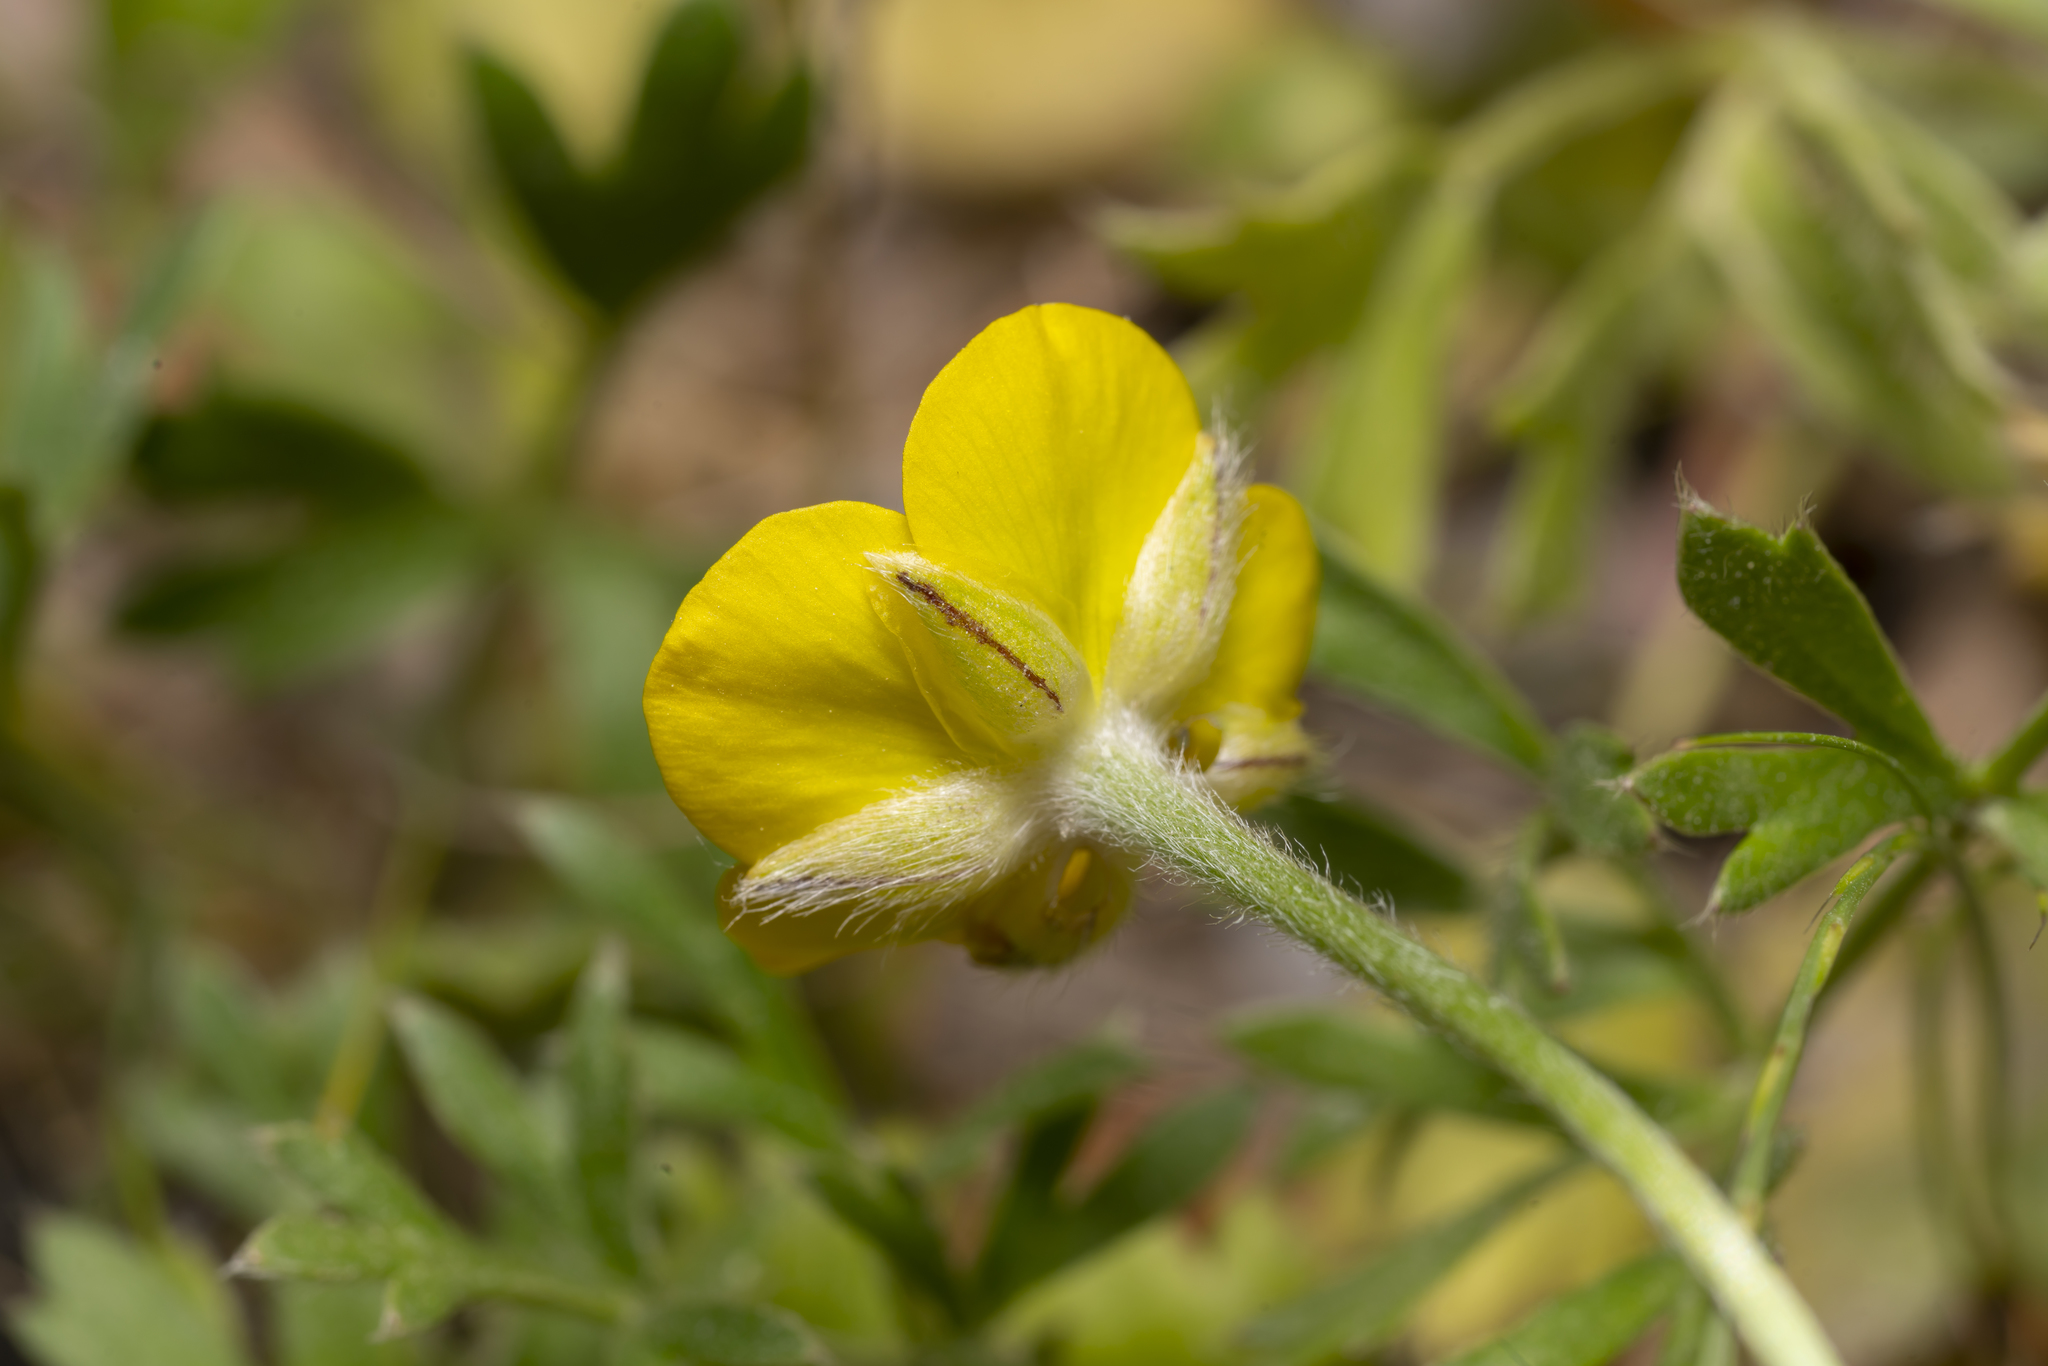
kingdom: Plantae
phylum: Tracheophyta
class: Magnoliopsida
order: Ranunculales
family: Ranunculaceae
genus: Ranunculus
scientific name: Ranunculus paludosus
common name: Jersey buttercup
